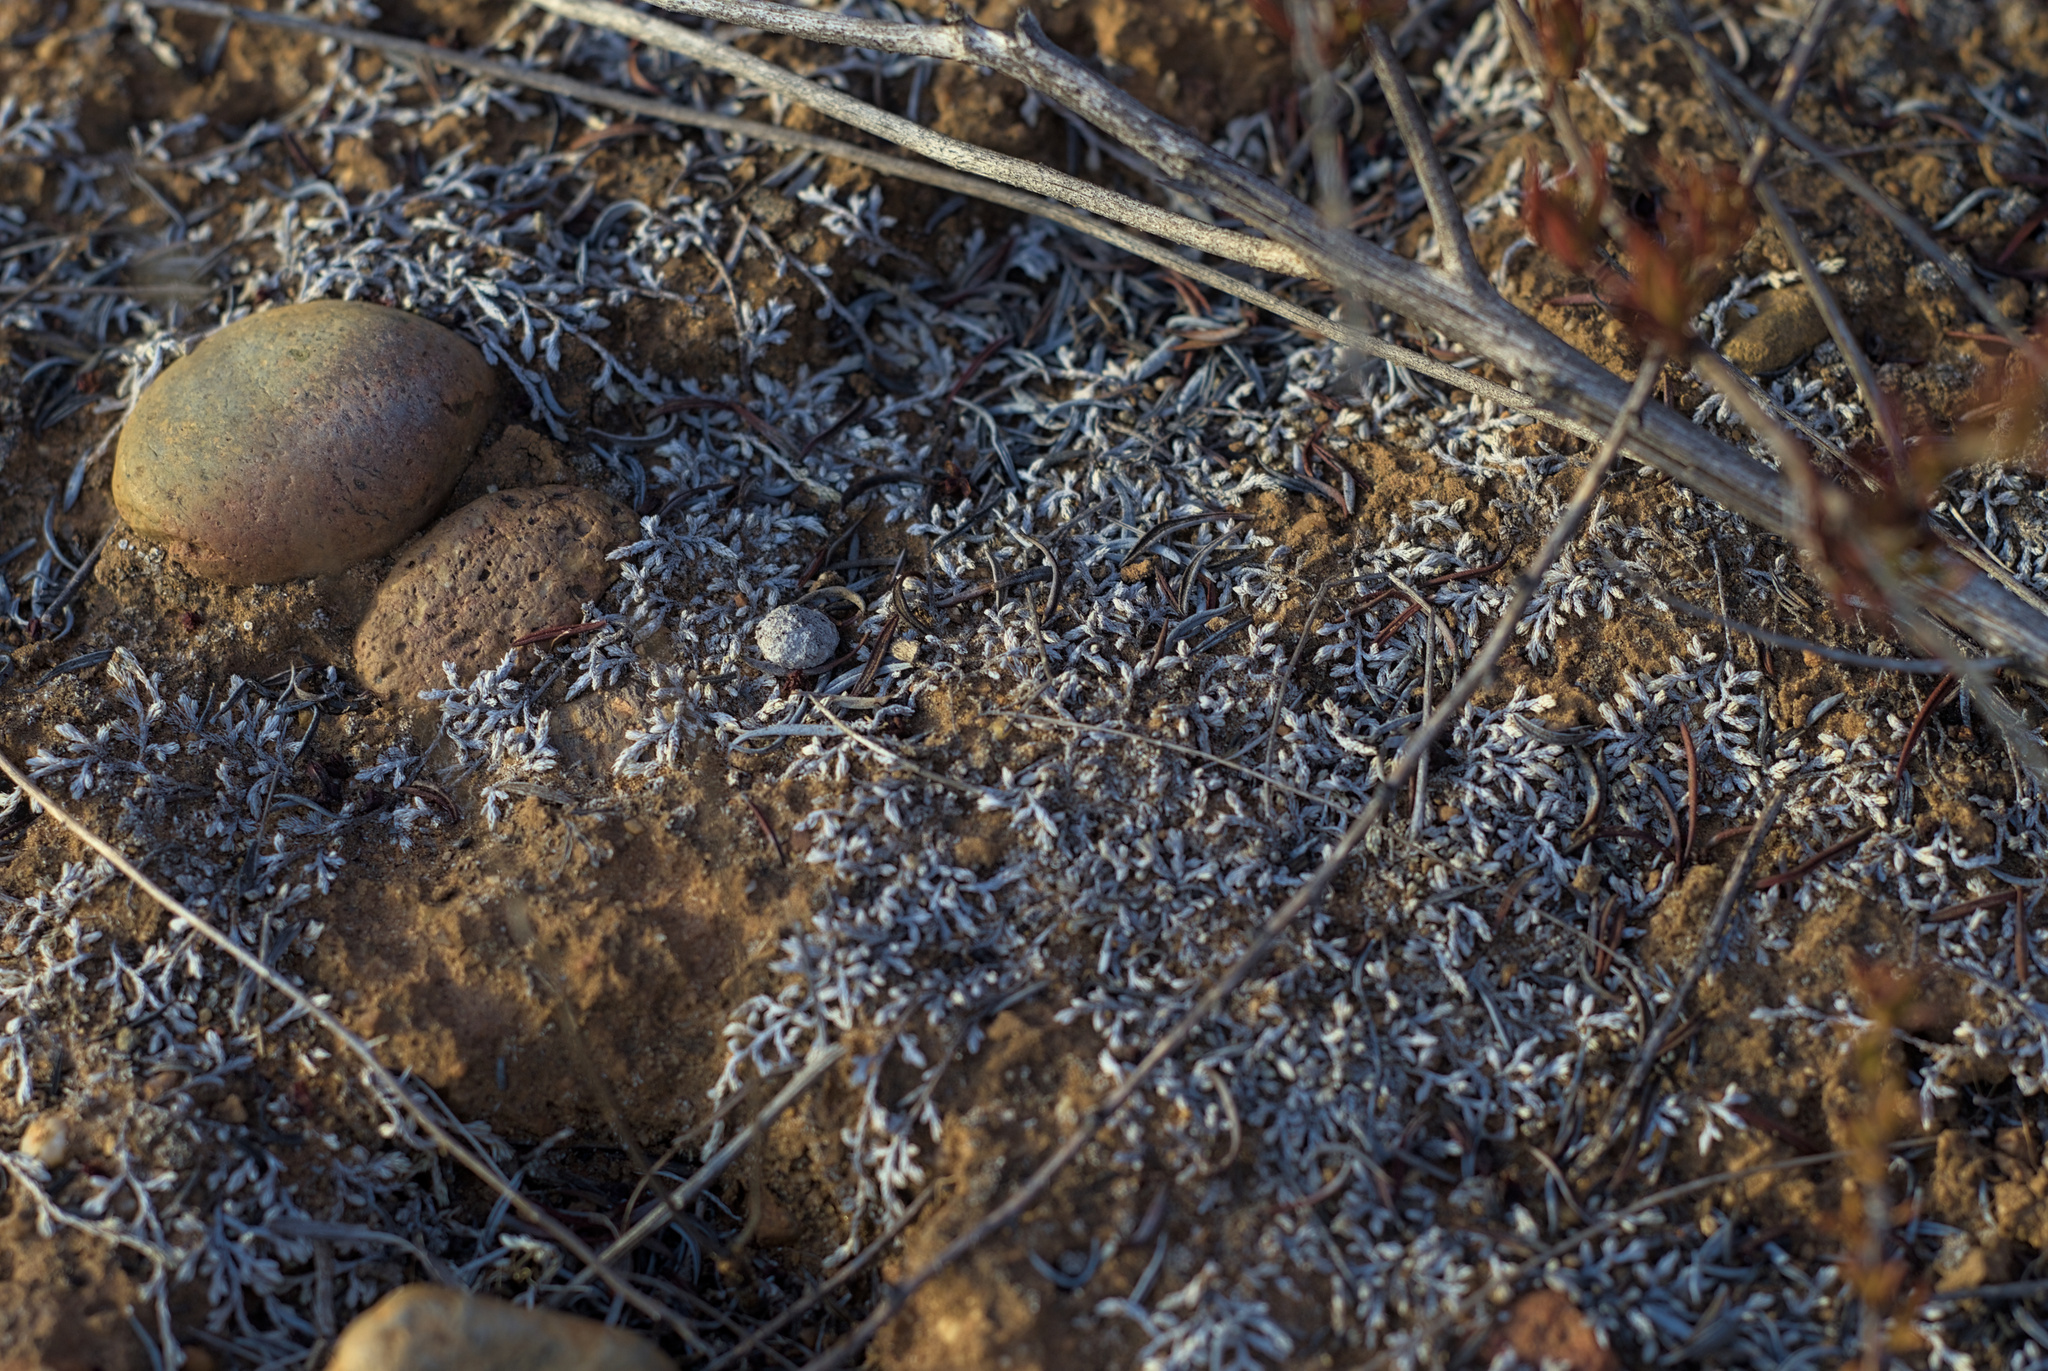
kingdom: Plantae
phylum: Tracheophyta
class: Lycopodiopsida
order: Selaginellales
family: Selaginellaceae
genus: Selaginella
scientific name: Selaginella cinerascens
